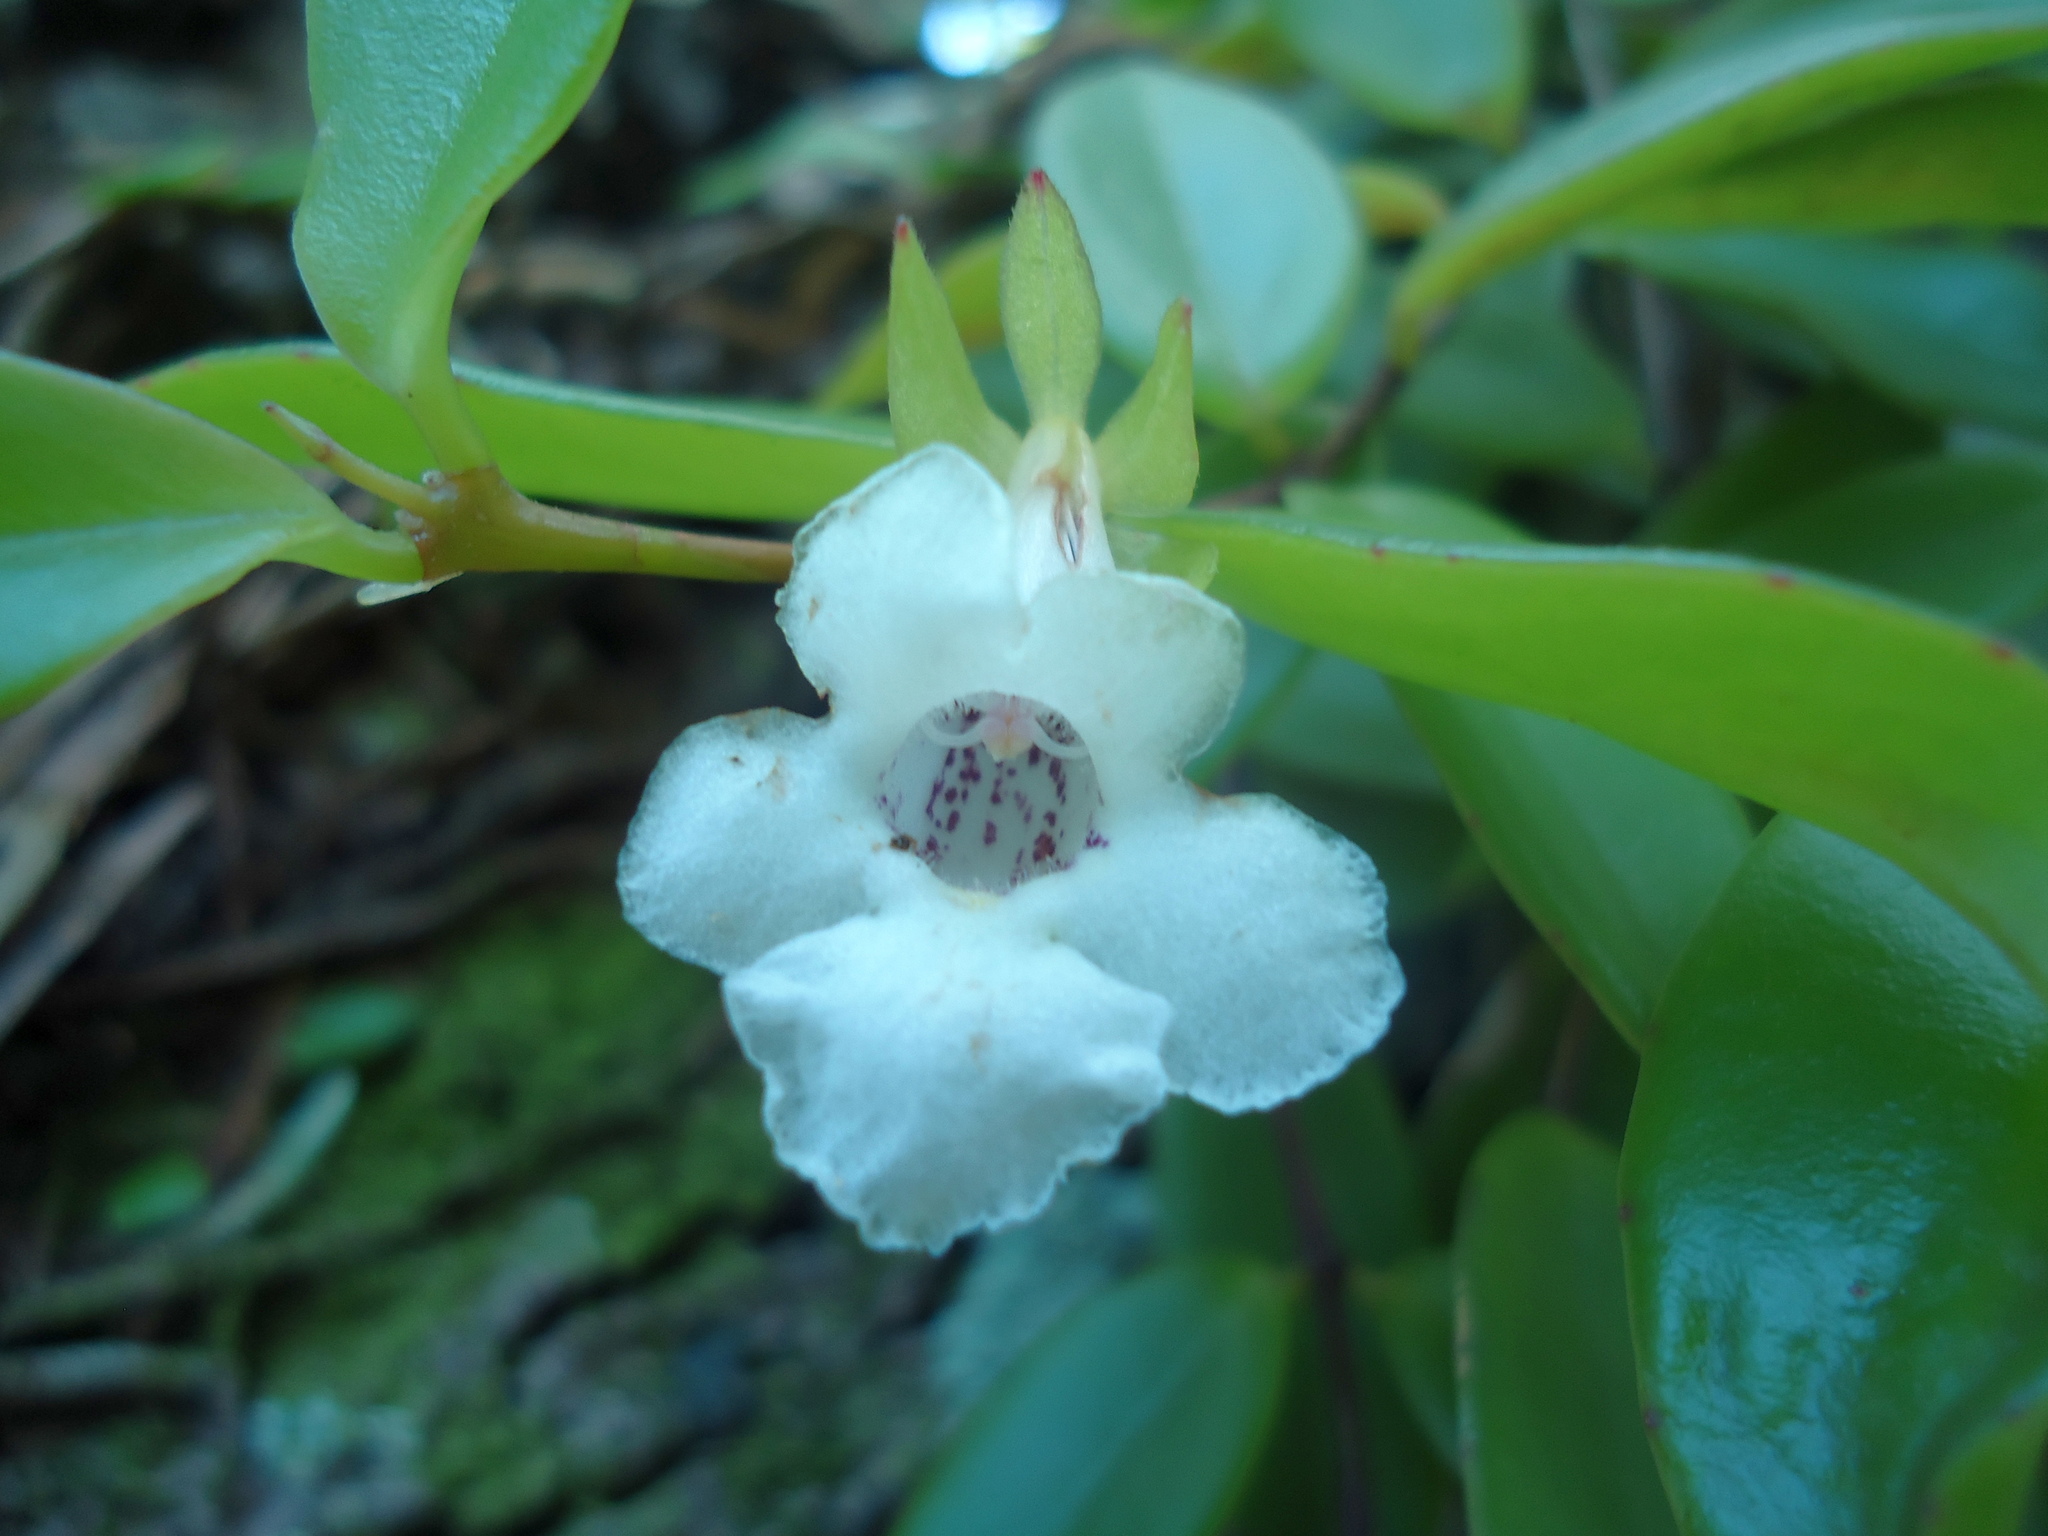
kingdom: Plantae
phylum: Tracheophyta
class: Magnoliopsida
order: Lamiales
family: Gesneriaceae
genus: Codonanthe
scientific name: Codonanthe gracilis
